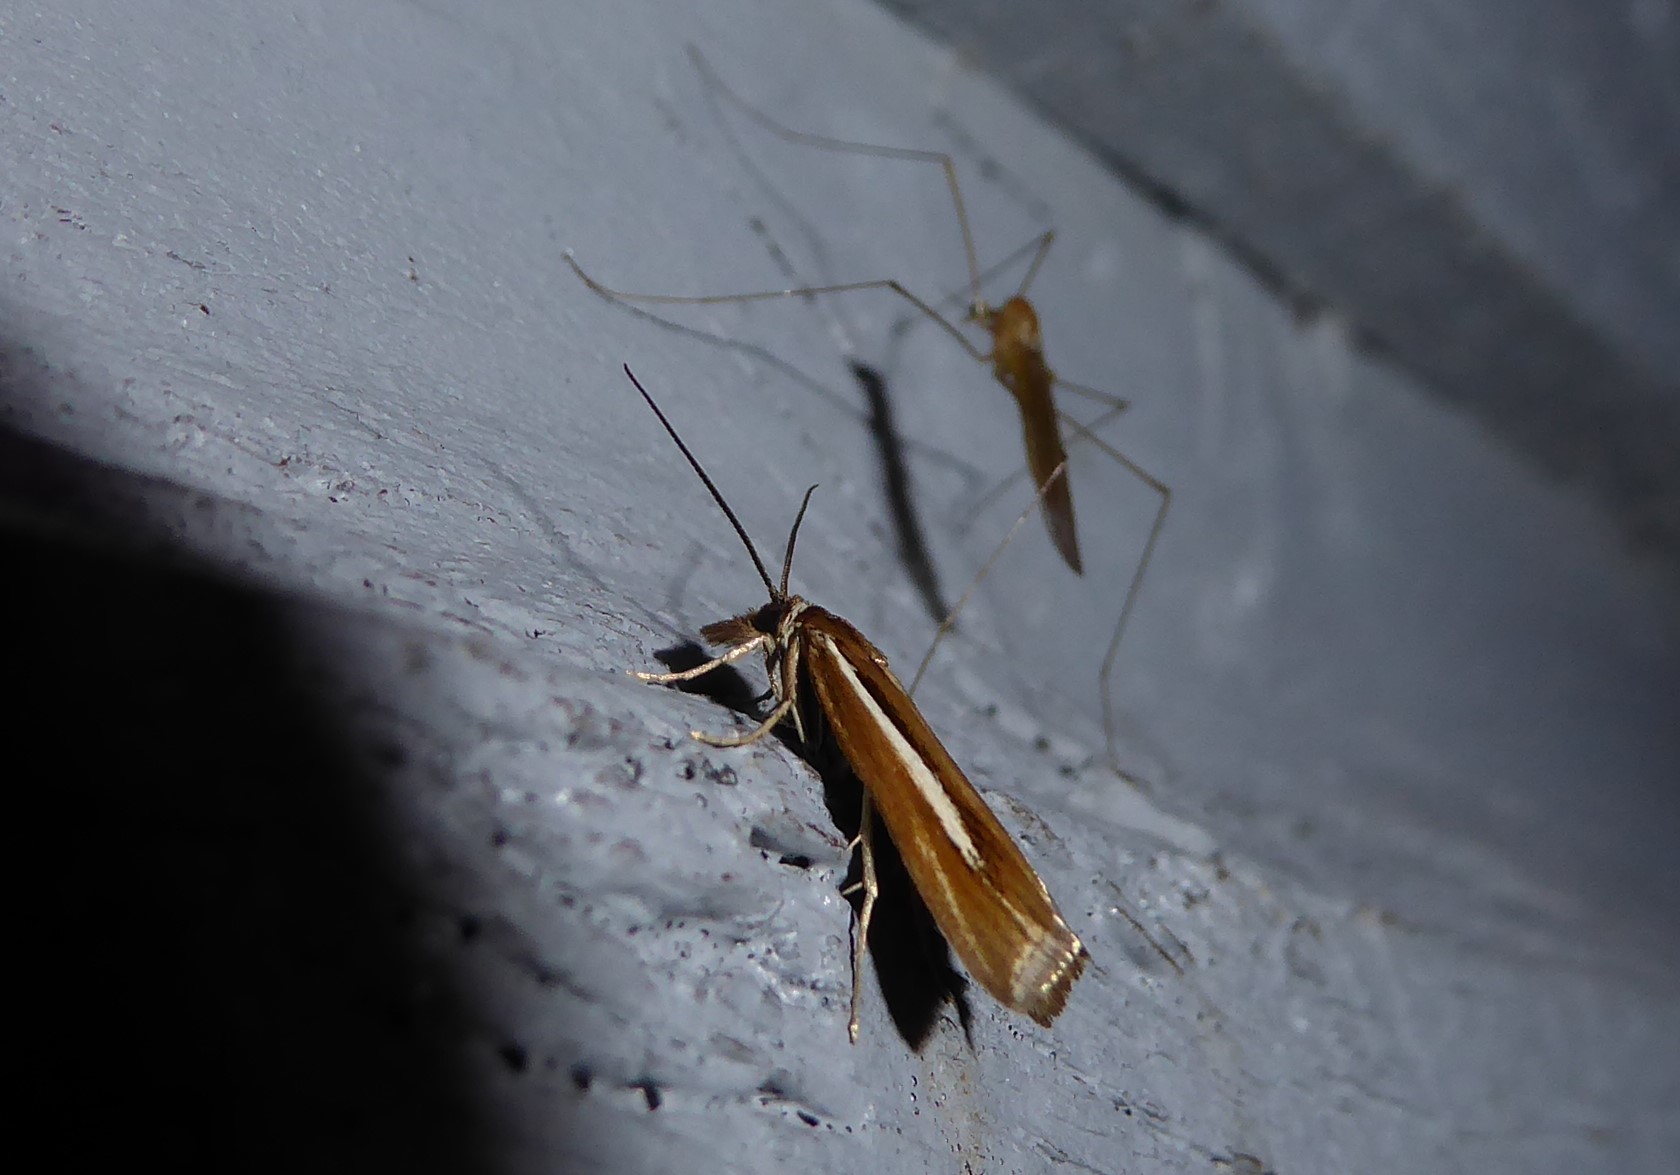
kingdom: Animalia
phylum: Arthropoda
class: Insecta
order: Lepidoptera
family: Crambidae
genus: Orocrambus
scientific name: Orocrambus aethonellus
